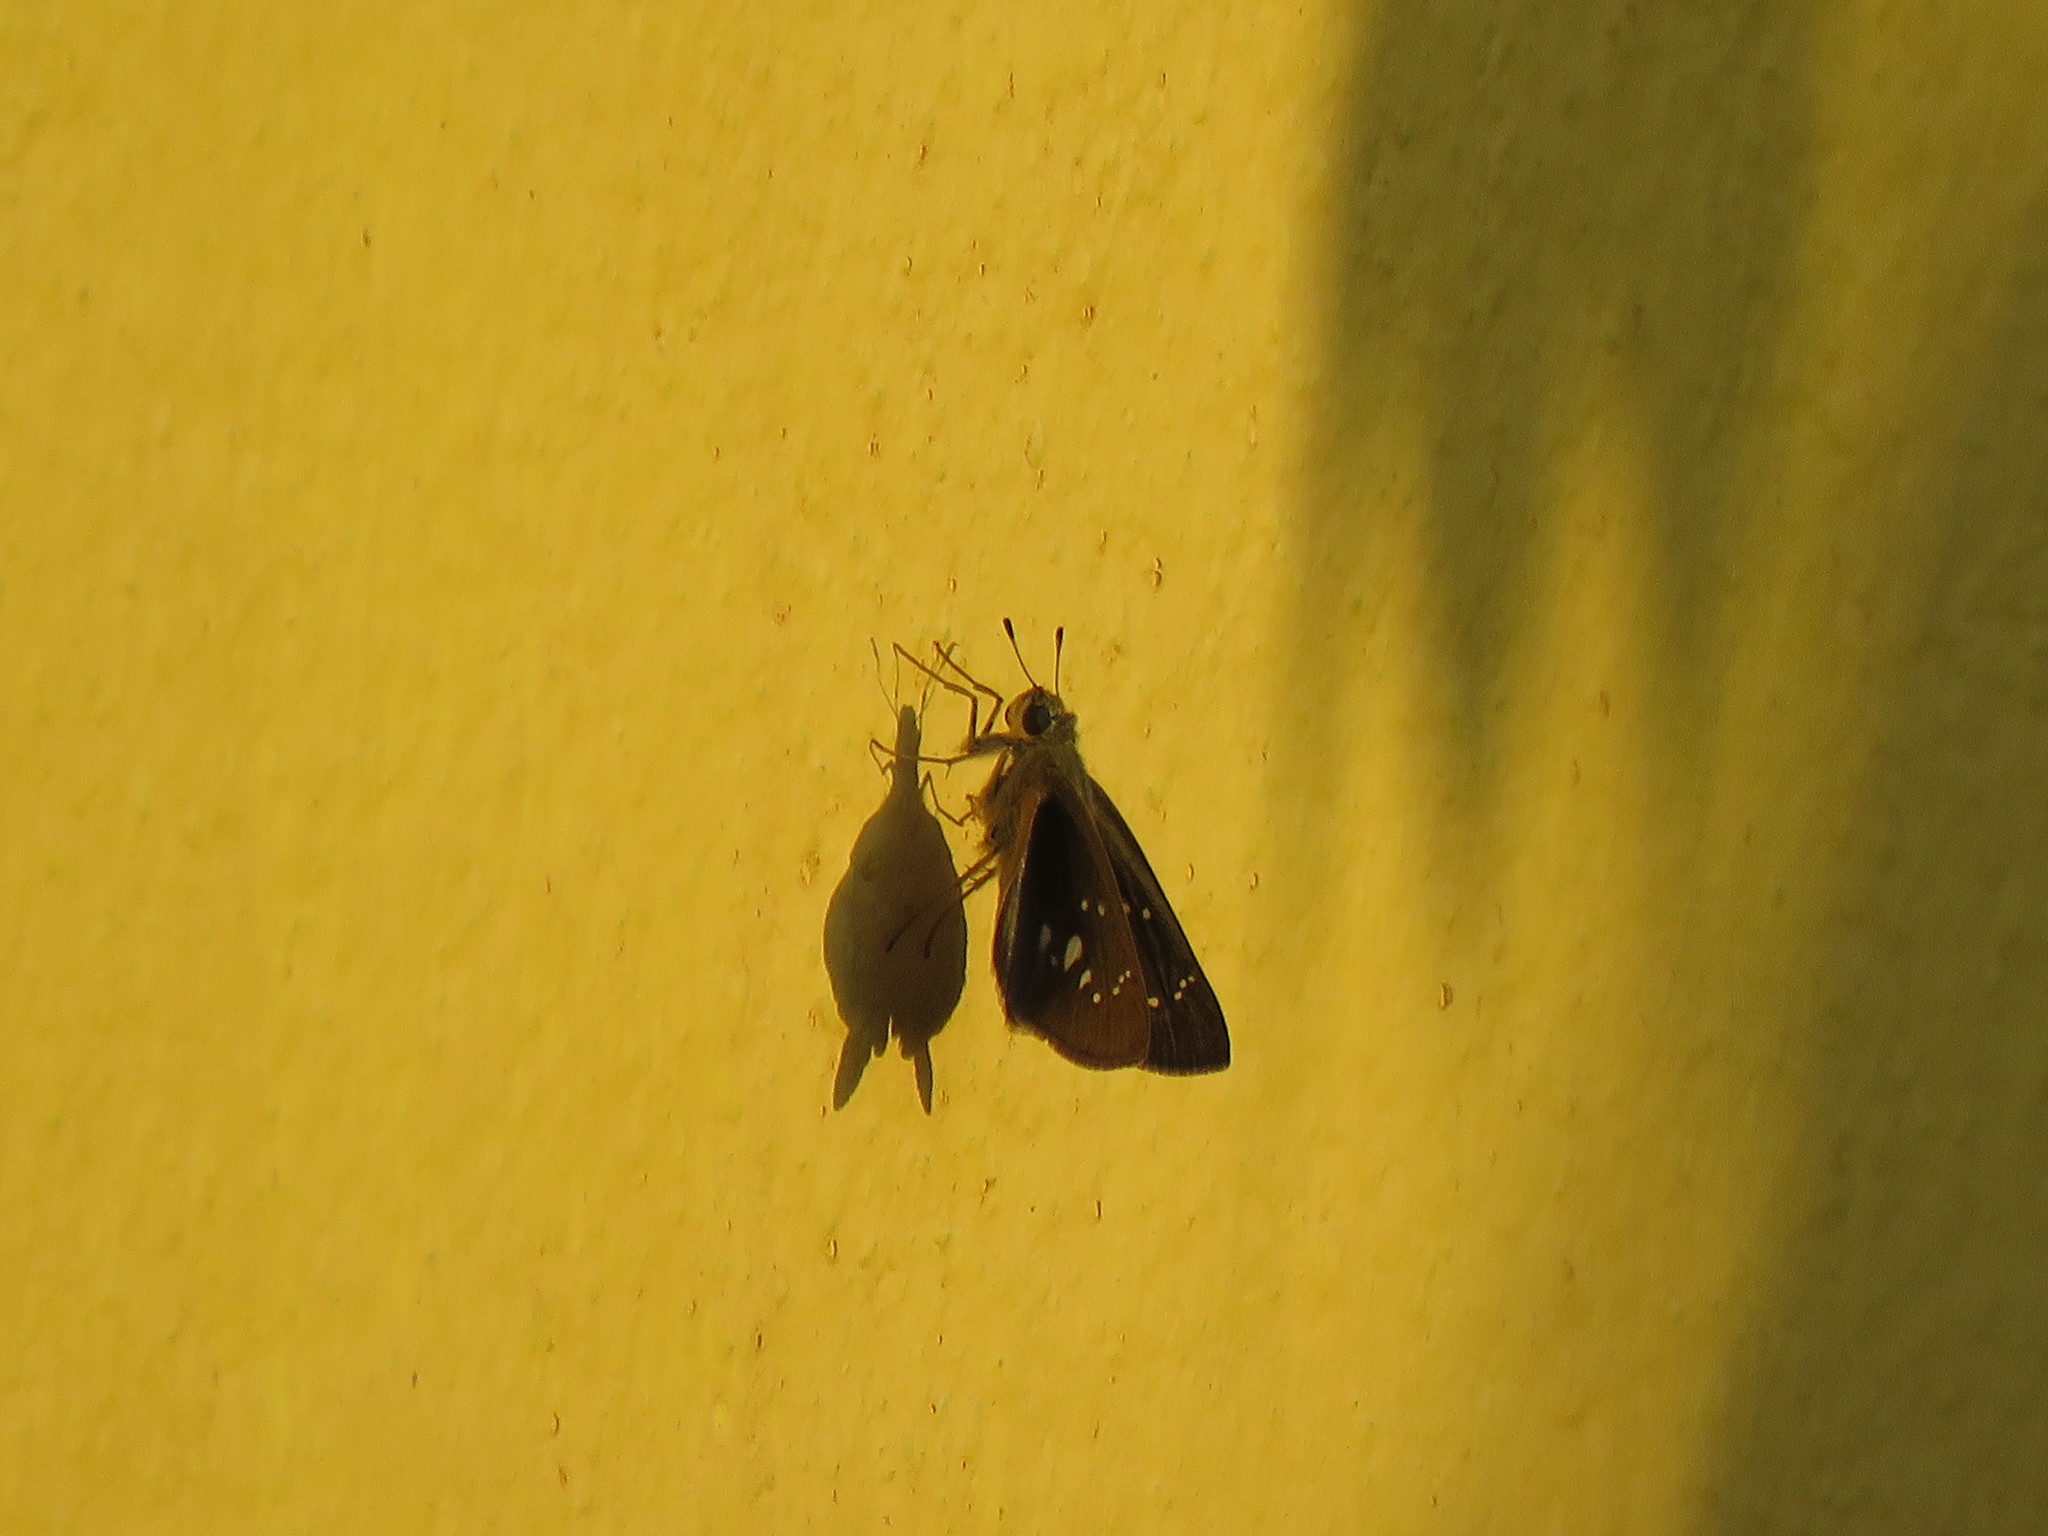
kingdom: Animalia
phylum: Arthropoda
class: Insecta
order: Lepidoptera
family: Hesperiidae
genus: Pelopidas
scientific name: Pelopidas agna
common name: Little branded swift
